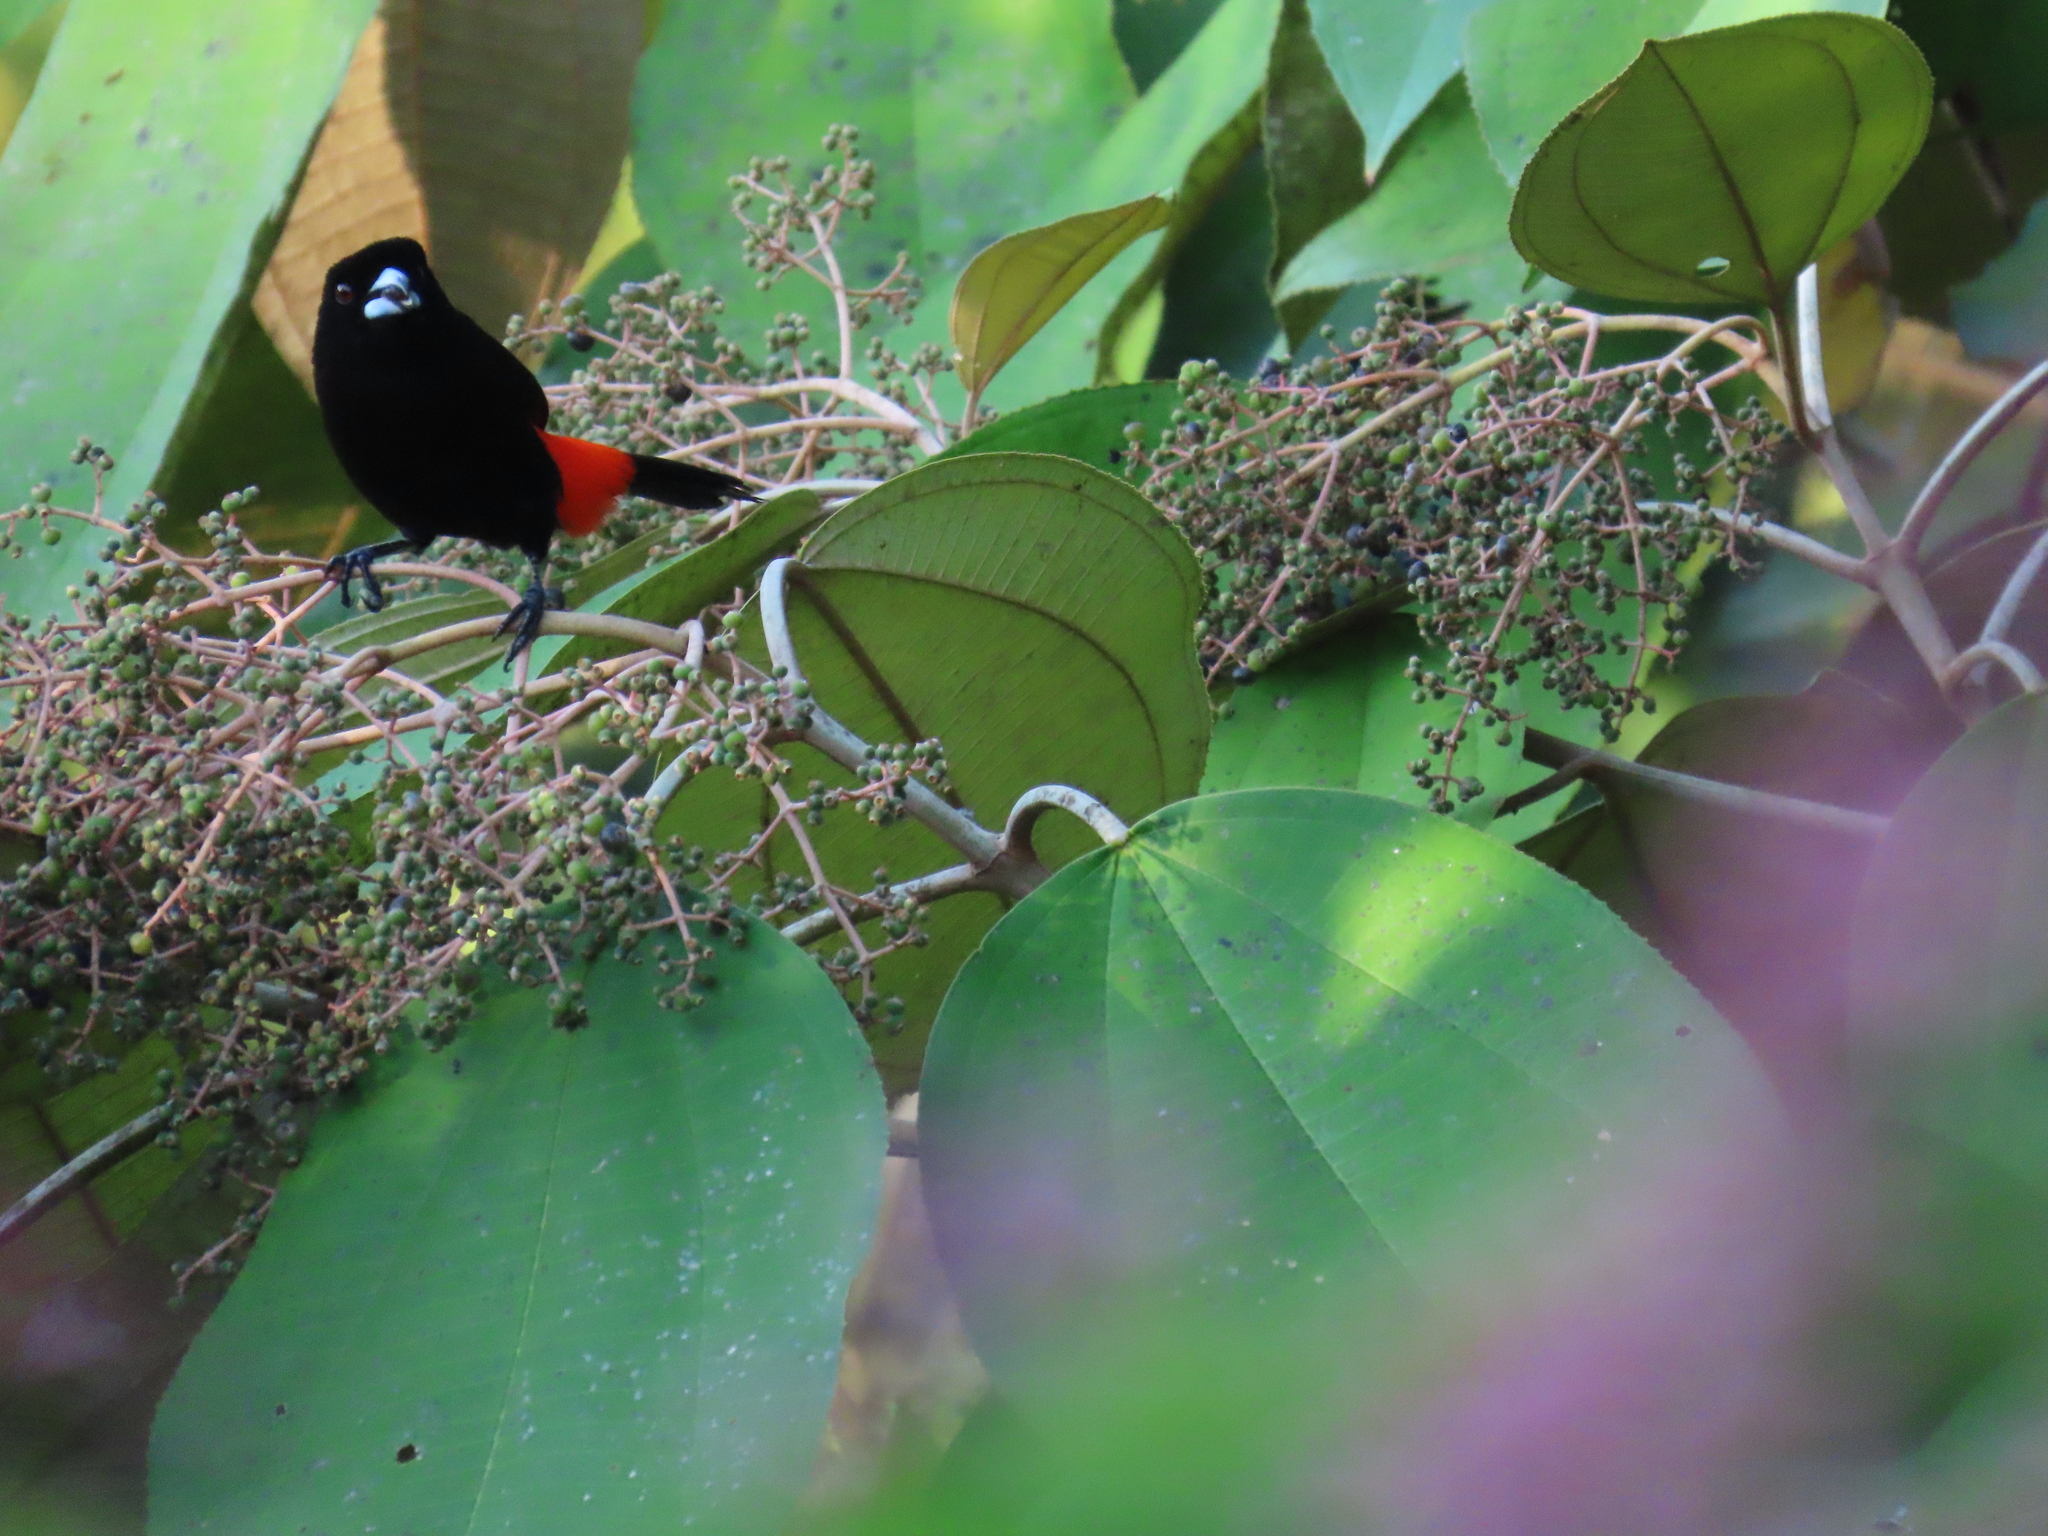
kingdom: Animalia
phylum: Chordata
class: Aves
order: Passeriformes
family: Thraupidae
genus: Ramphocelus
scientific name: Ramphocelus passerinii
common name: Passerini's tanager
